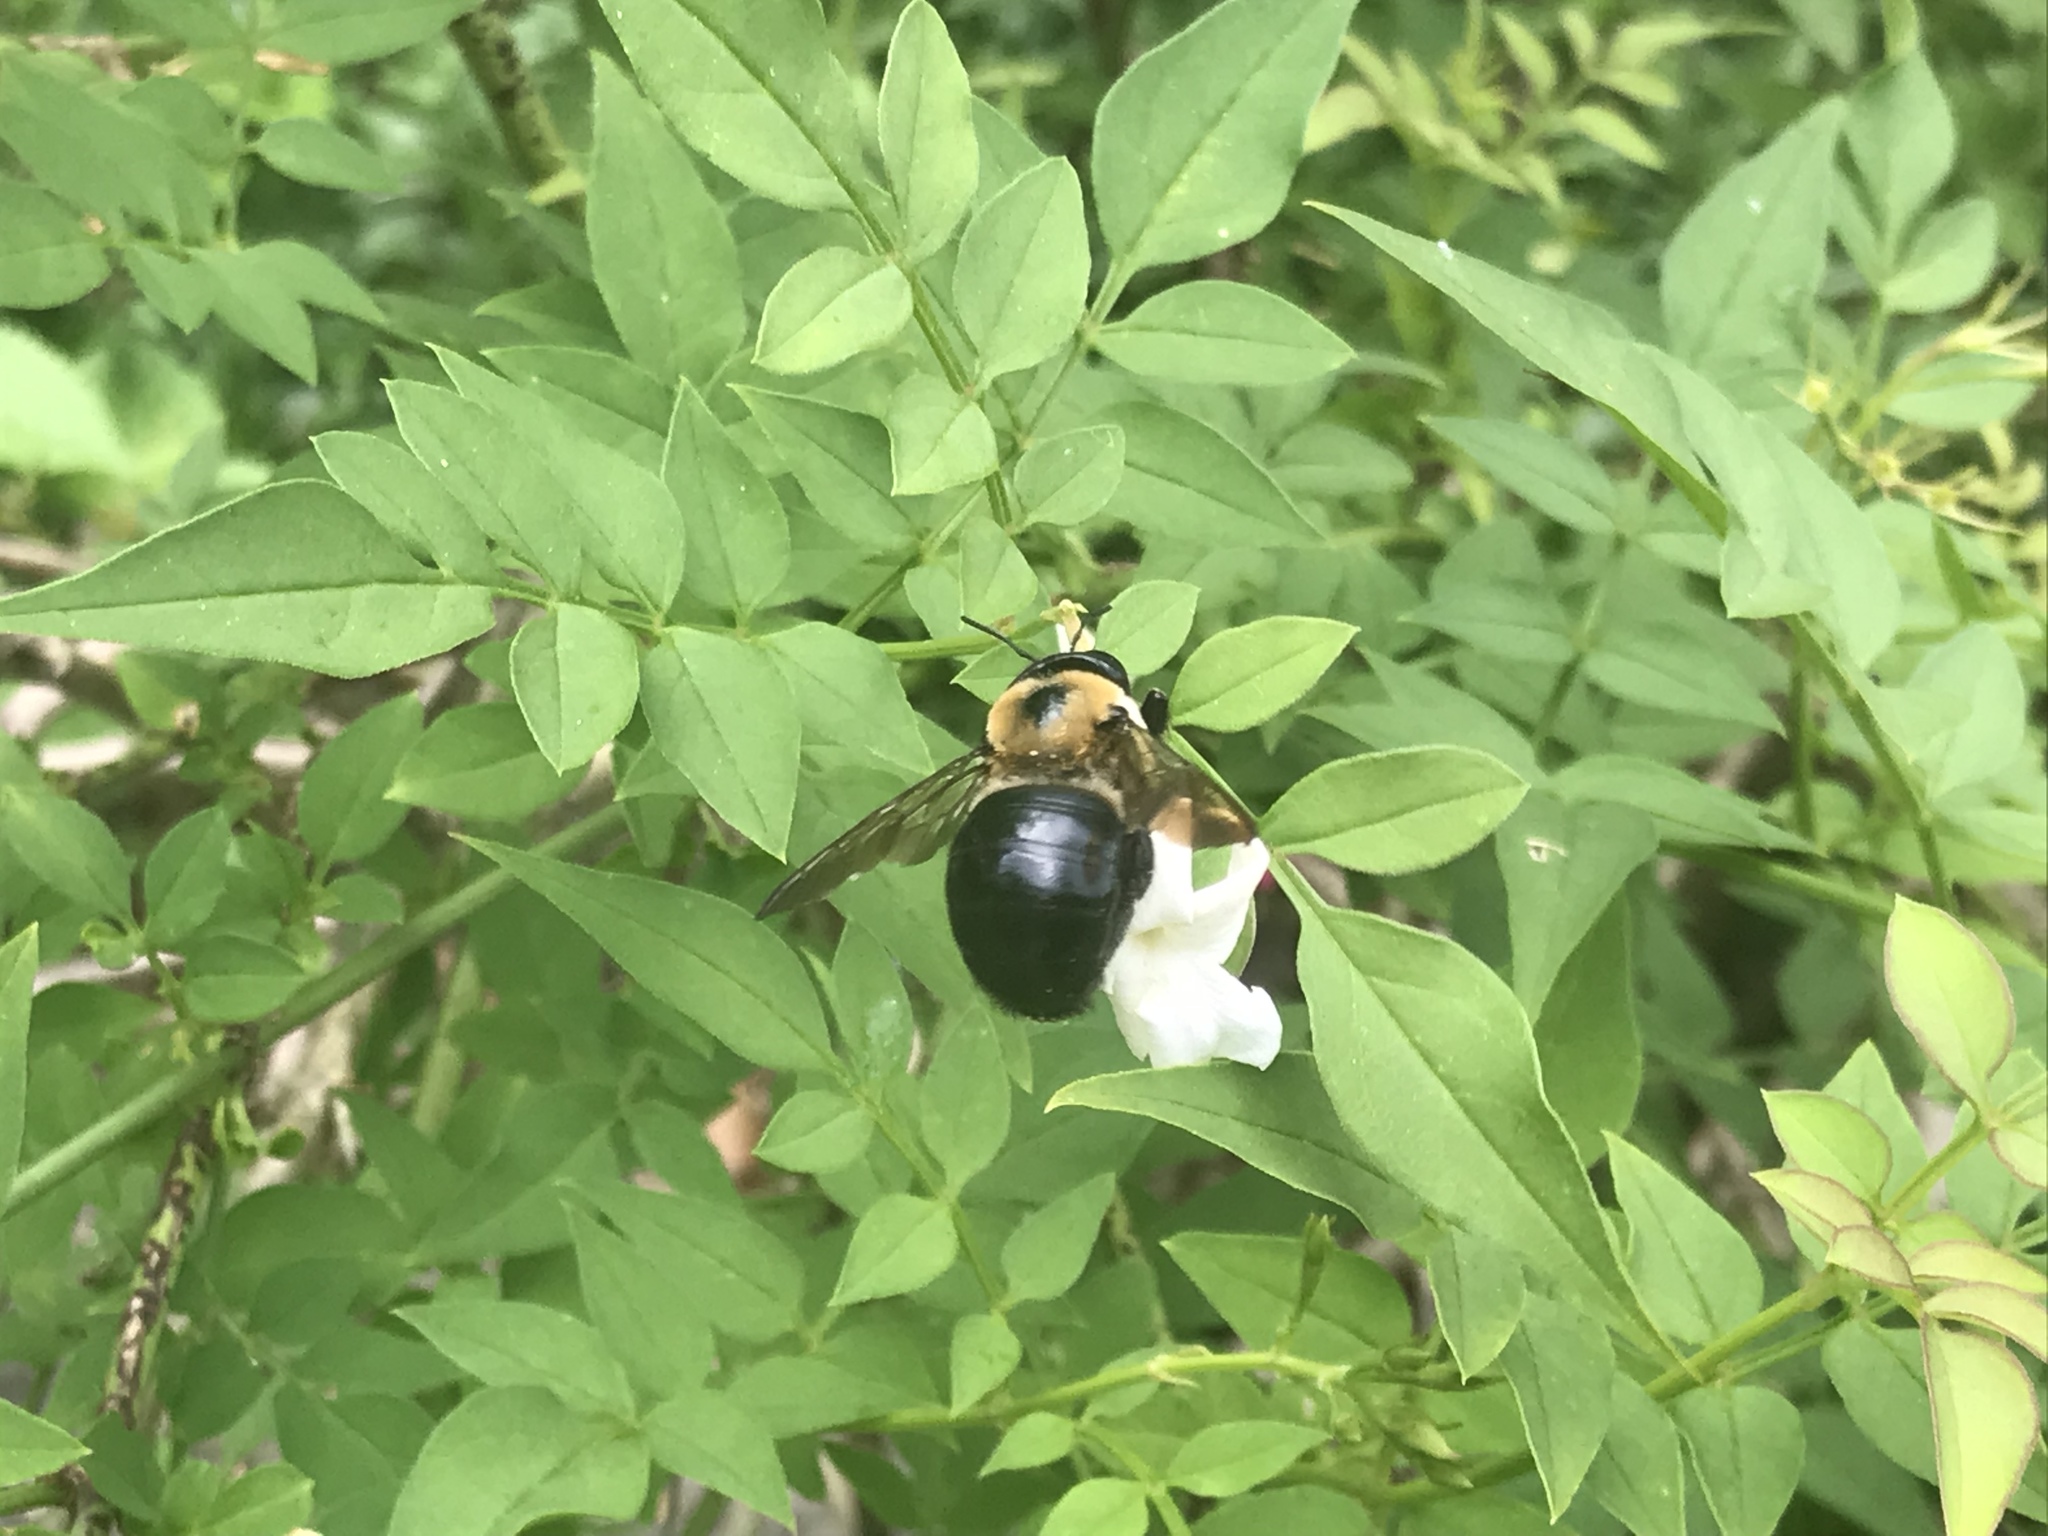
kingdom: Animalia
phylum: Arthropoda
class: Insecta
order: Hymenoptera
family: Apidae
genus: Xylocopa
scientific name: Xylocopa virginica
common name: Carpenter bee
